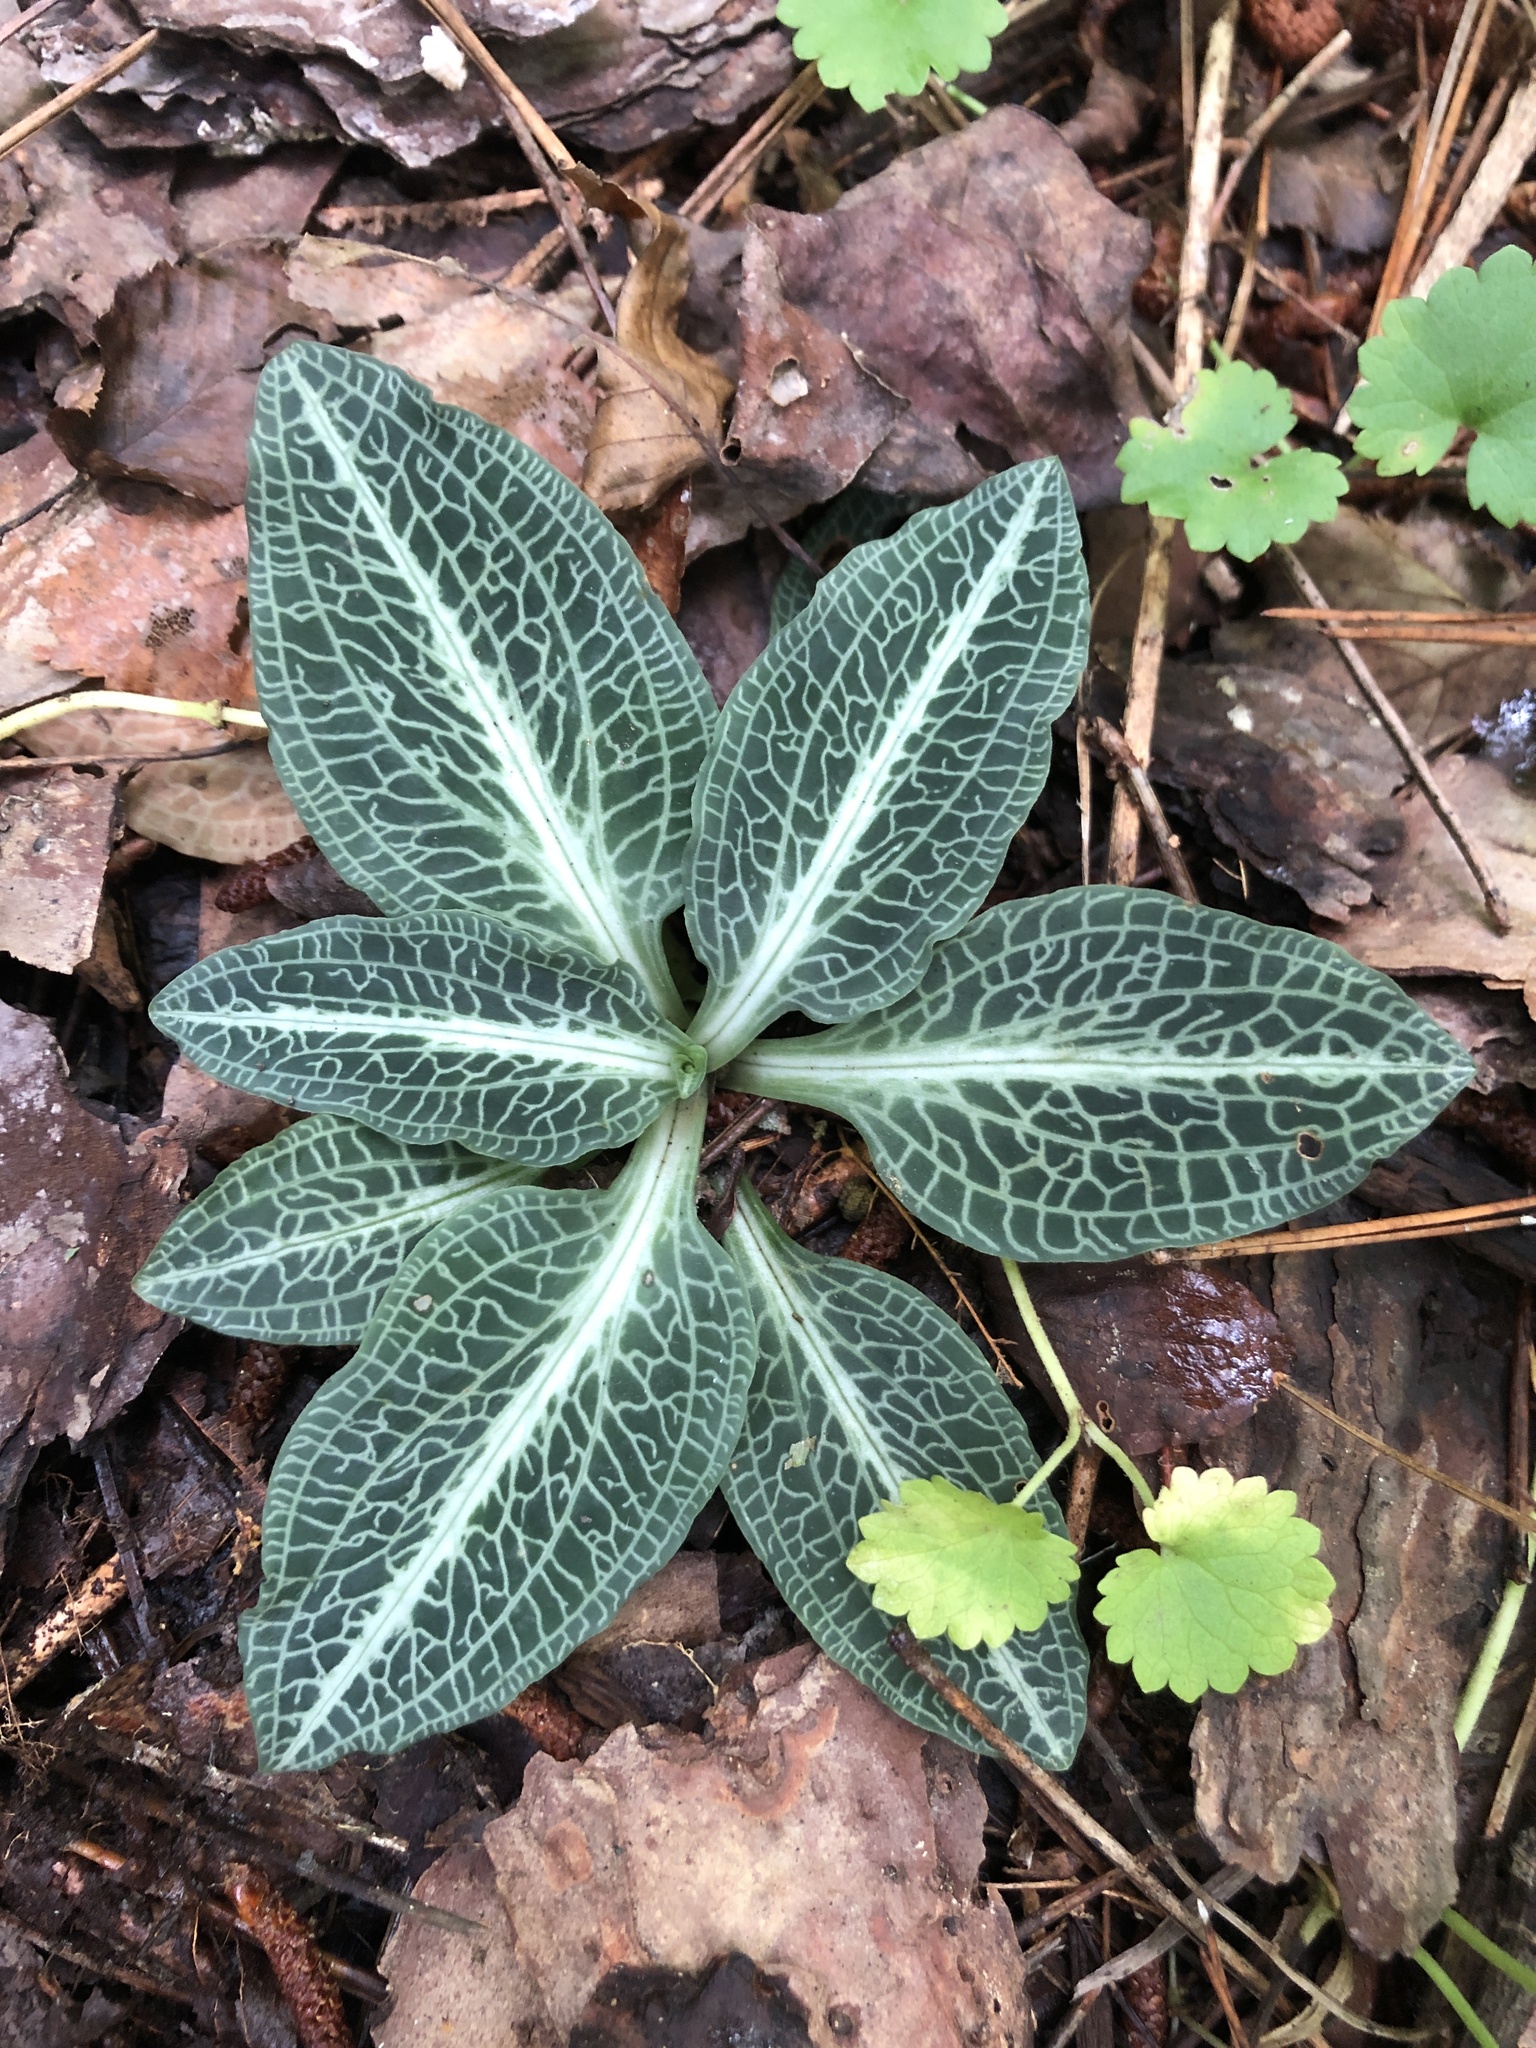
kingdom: Plantae
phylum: Tracheophyta
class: Liliopsida
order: Asparagales
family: Orchidaceae
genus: Goodyera
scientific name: Goodyera pubescens
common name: Downy rattlesnake-plantain
